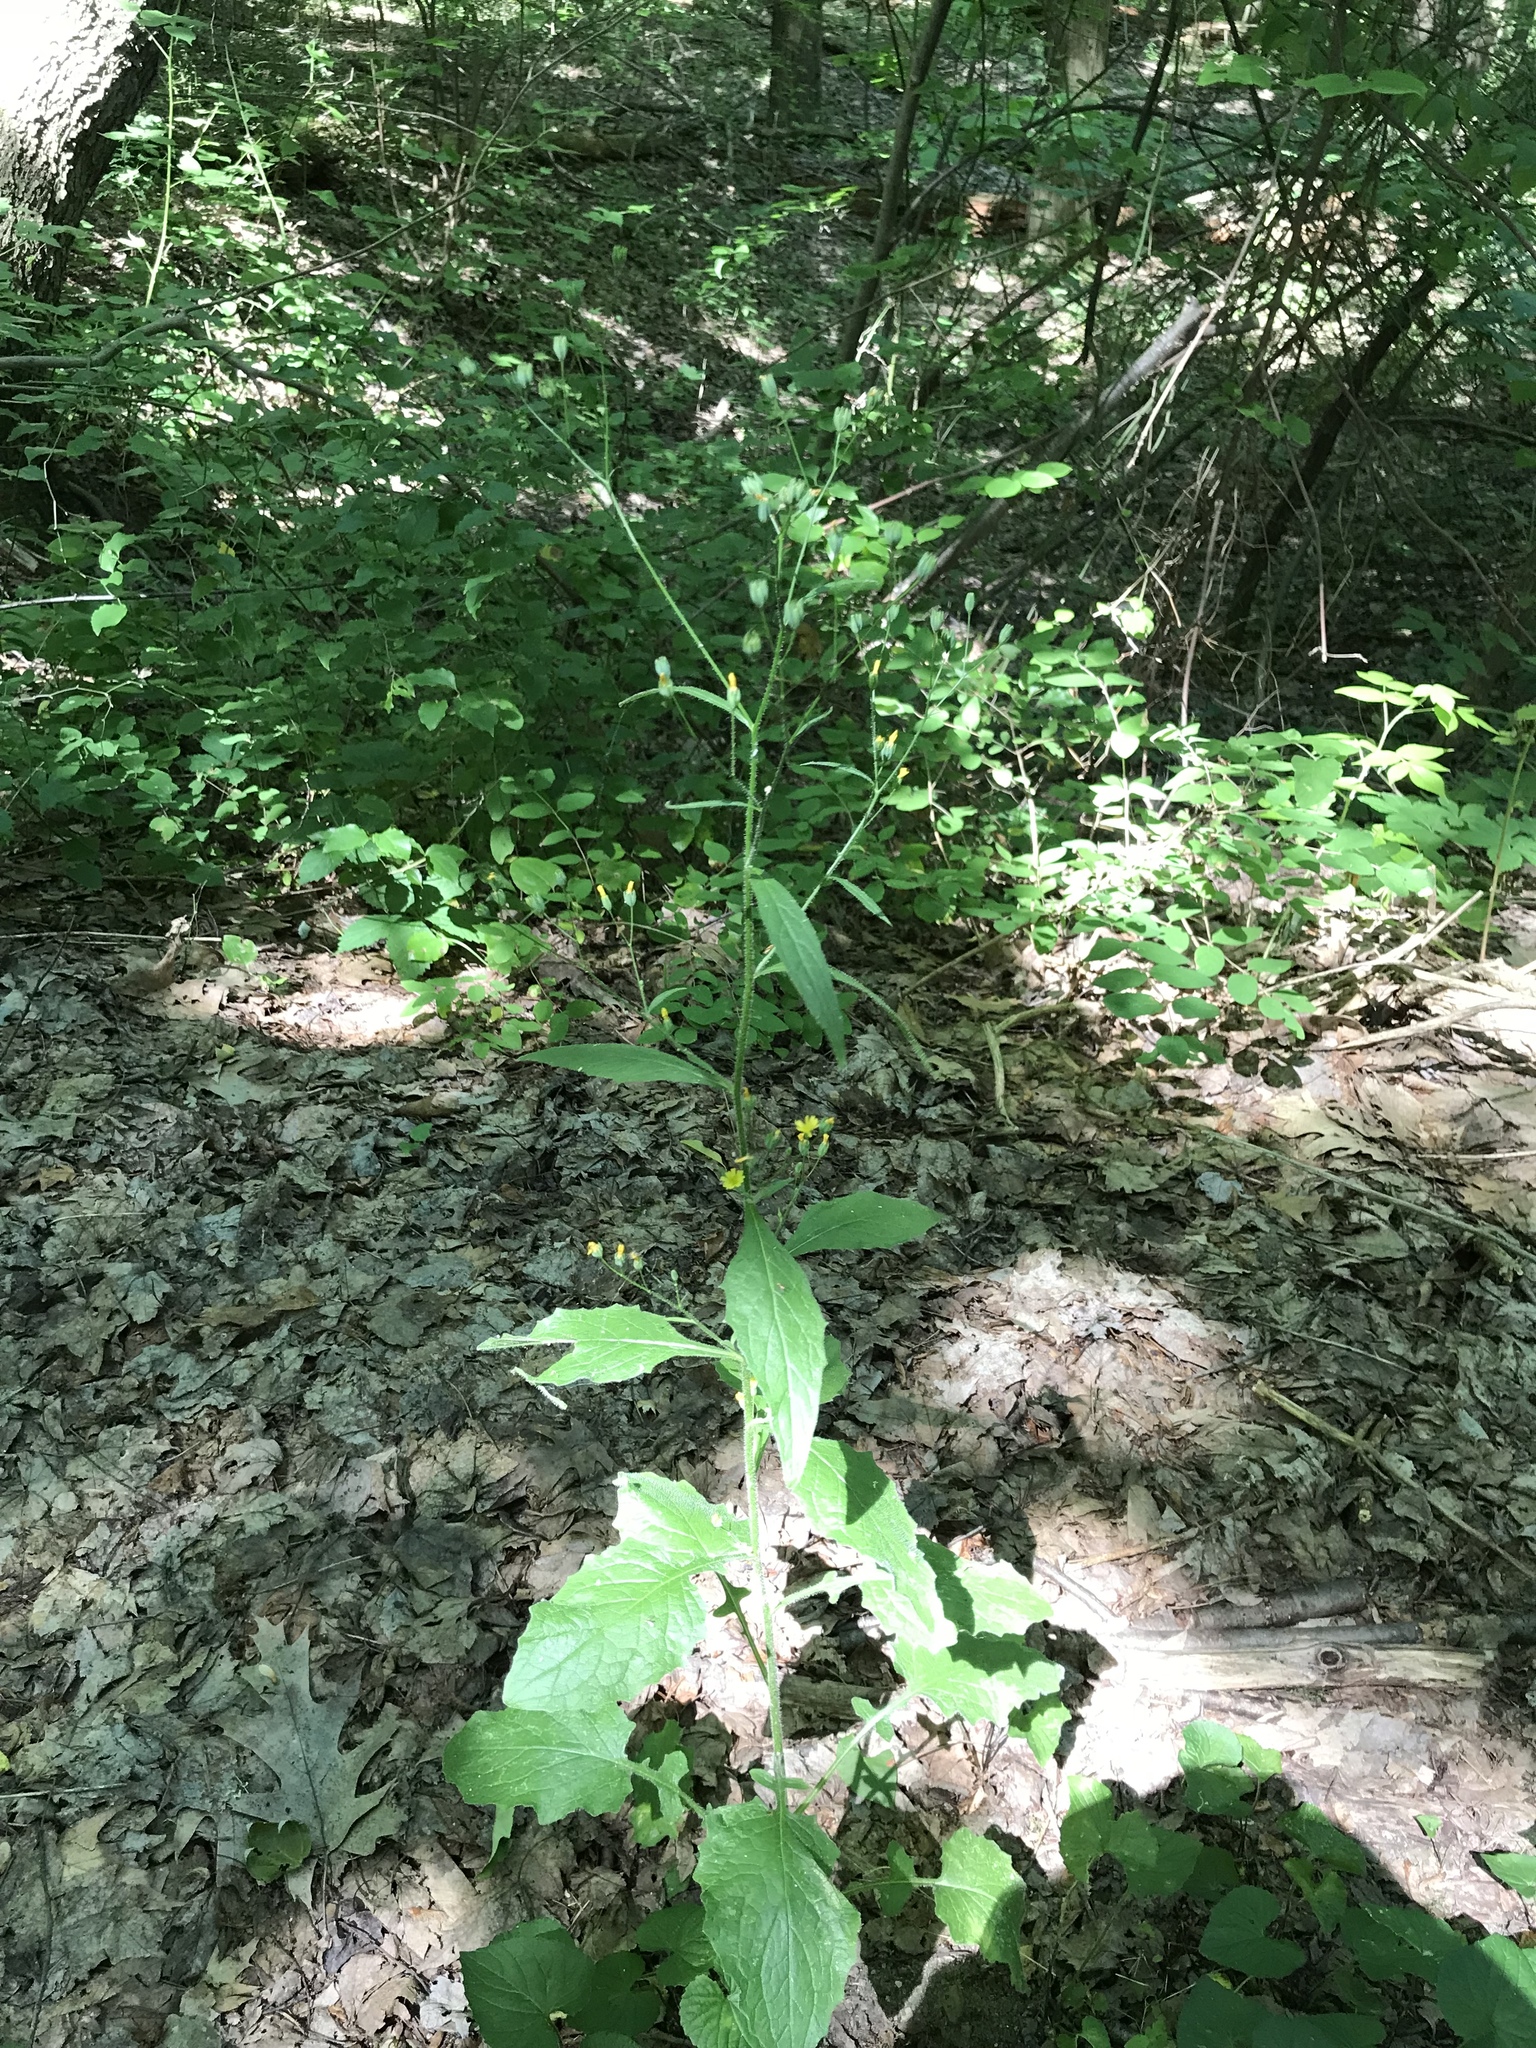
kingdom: Plantae
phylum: Tracheophyta
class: Magnoliopsida
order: Asterales
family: Asteraceae
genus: Lapsana
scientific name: Lapsana communis
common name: Nipplewort
